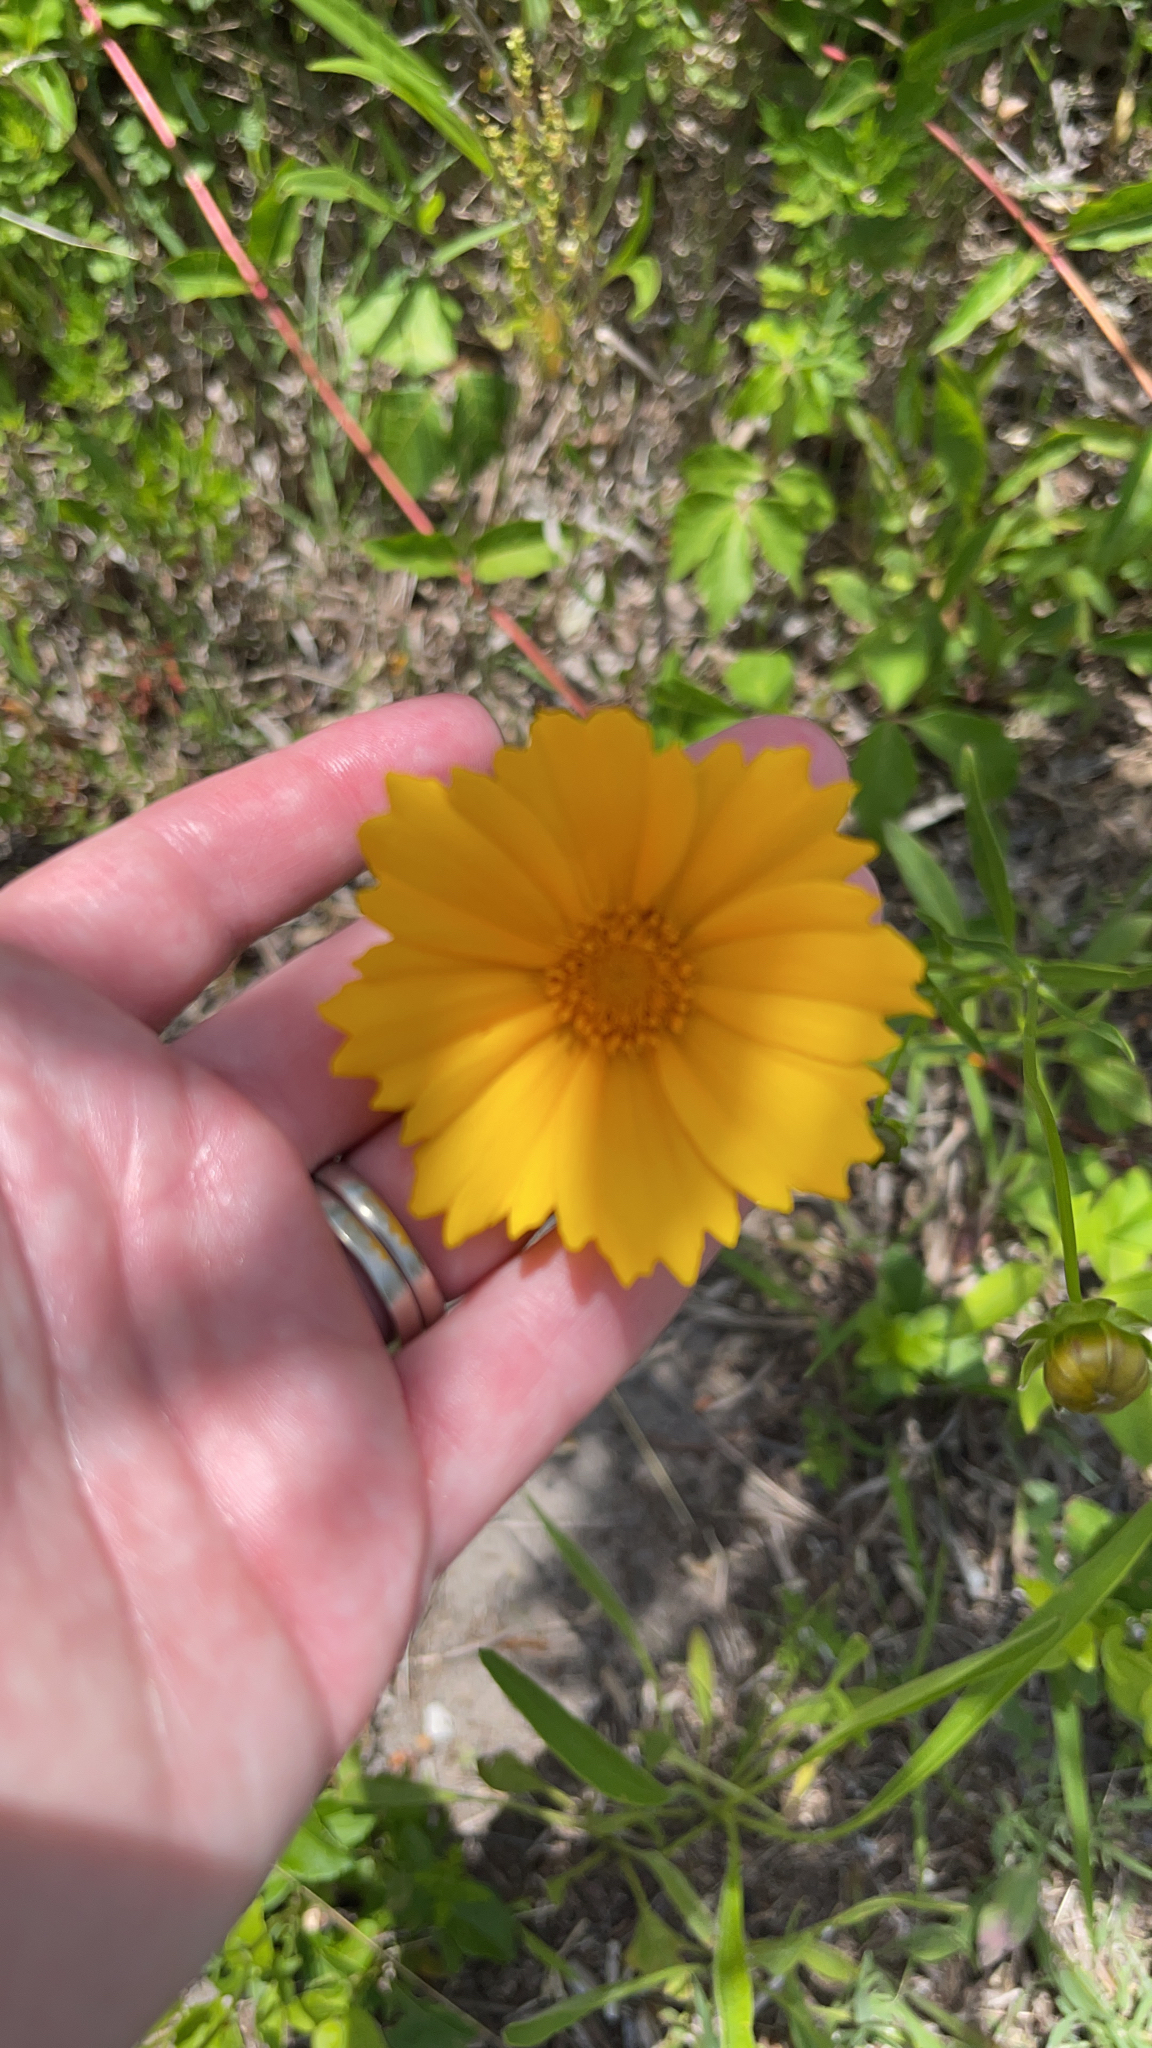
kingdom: Plantae
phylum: Tracheophyta
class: Magnoliopsida
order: Asterales
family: Asteraceae
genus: Coreopsis
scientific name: Coreopsis lanceolata
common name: Garden coreopsis
